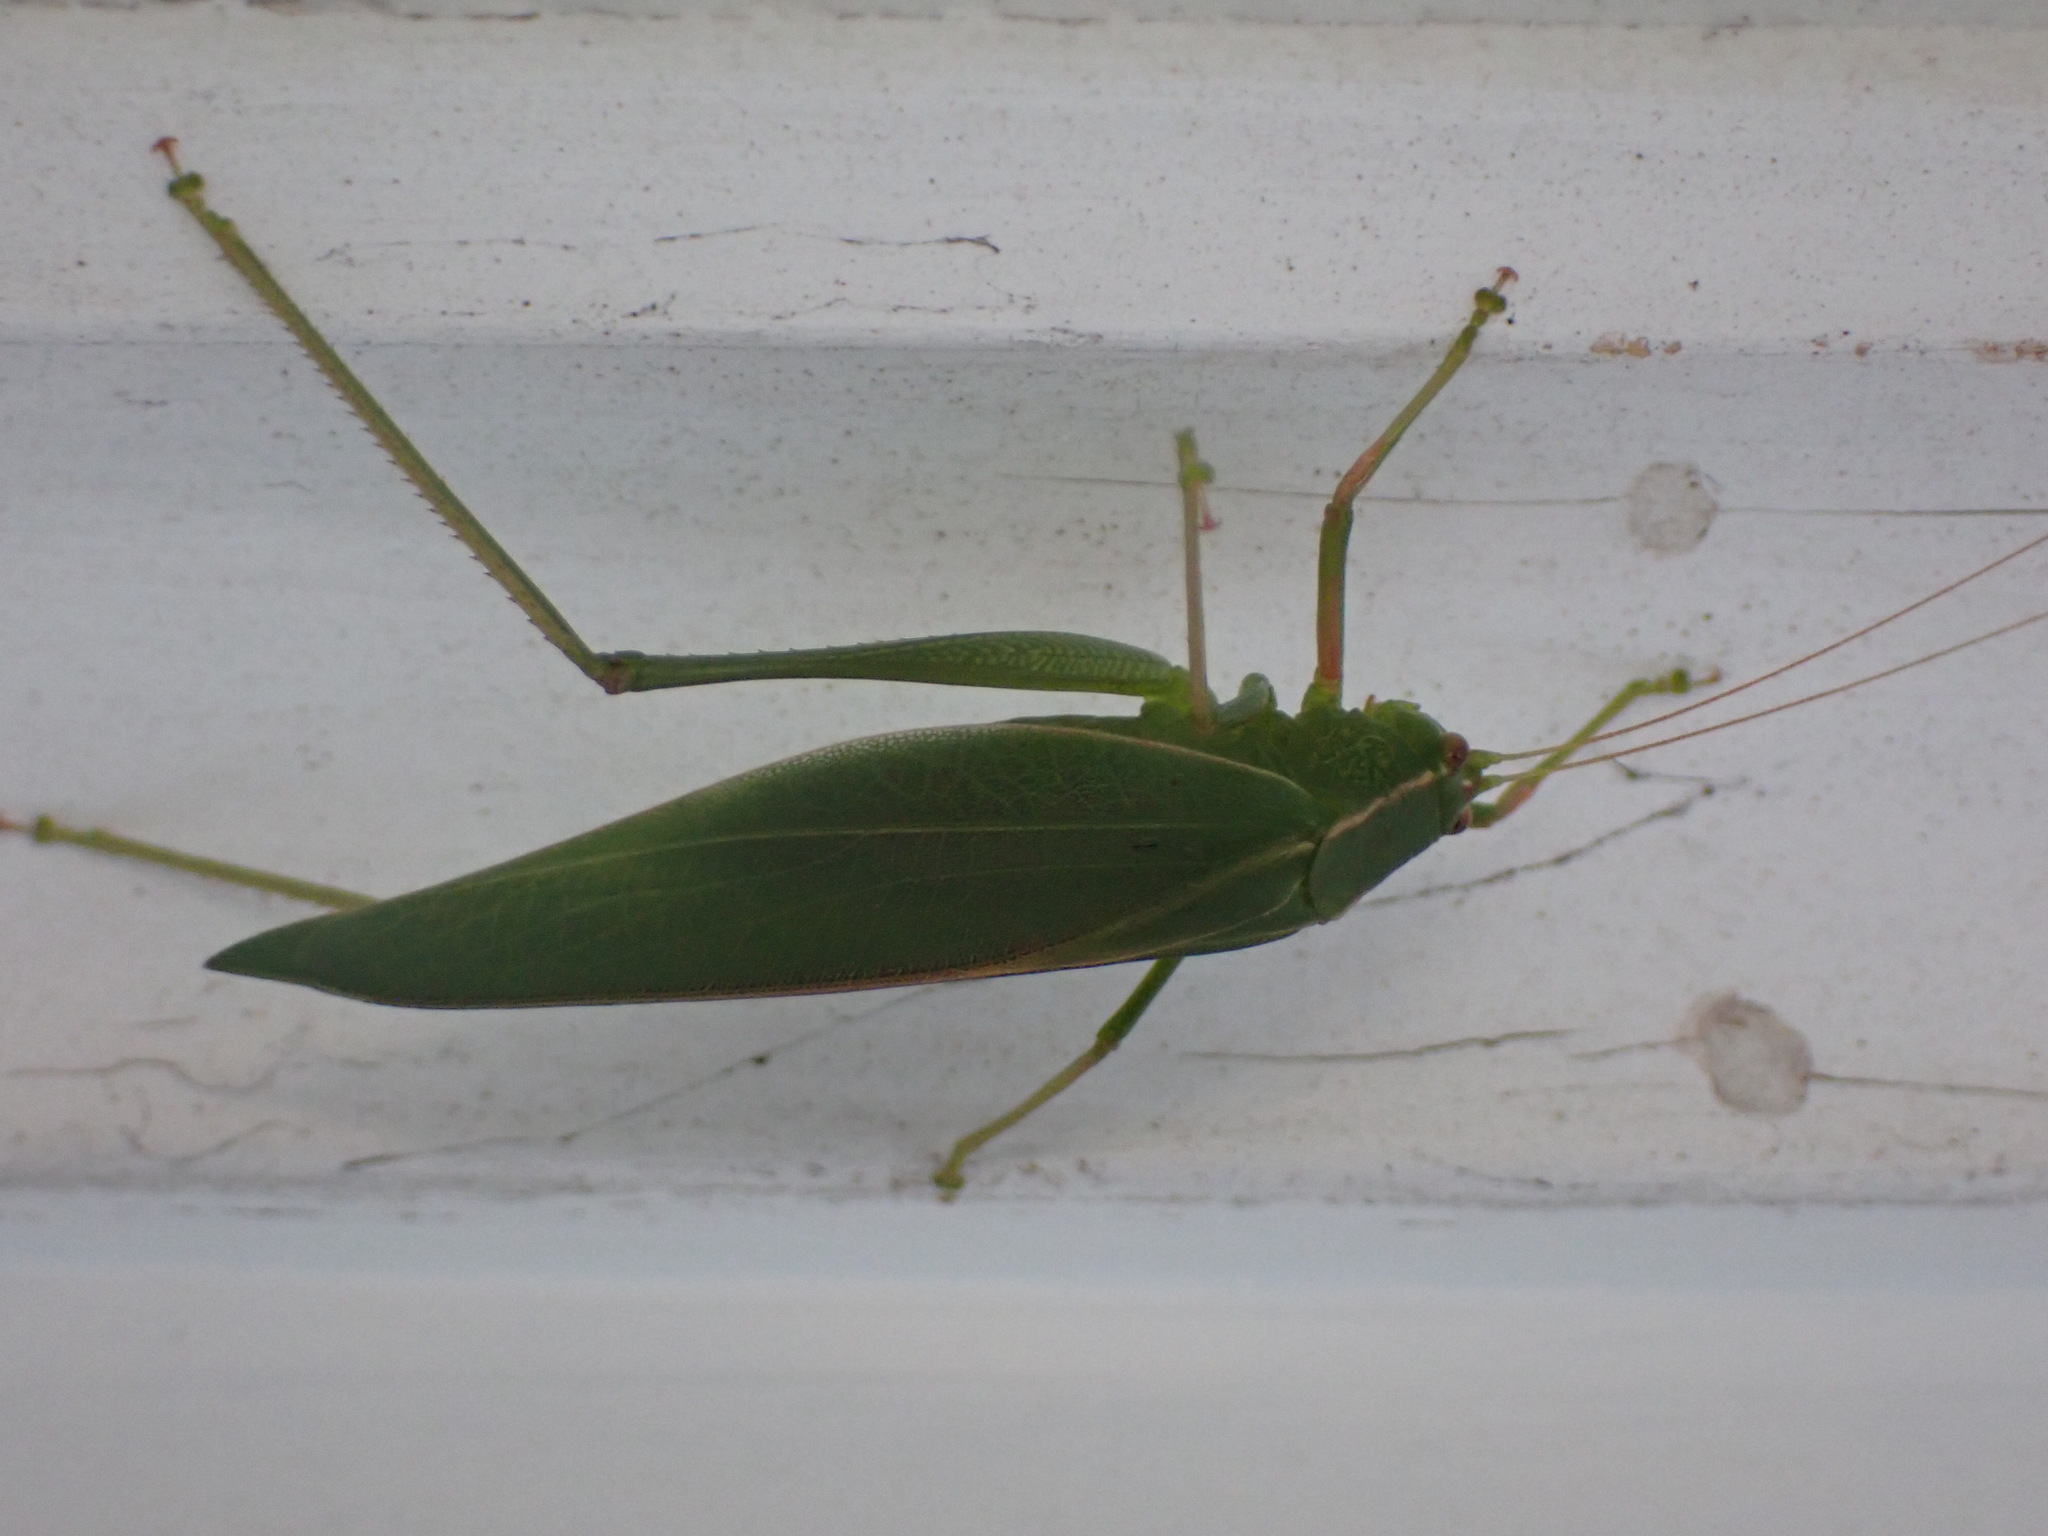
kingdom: Animalia
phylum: Arthropoda
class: Insecta
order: Orthoptera
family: Tettigoniidae
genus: Caedicia
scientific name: Caedicia simplex
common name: Common garden katydid
